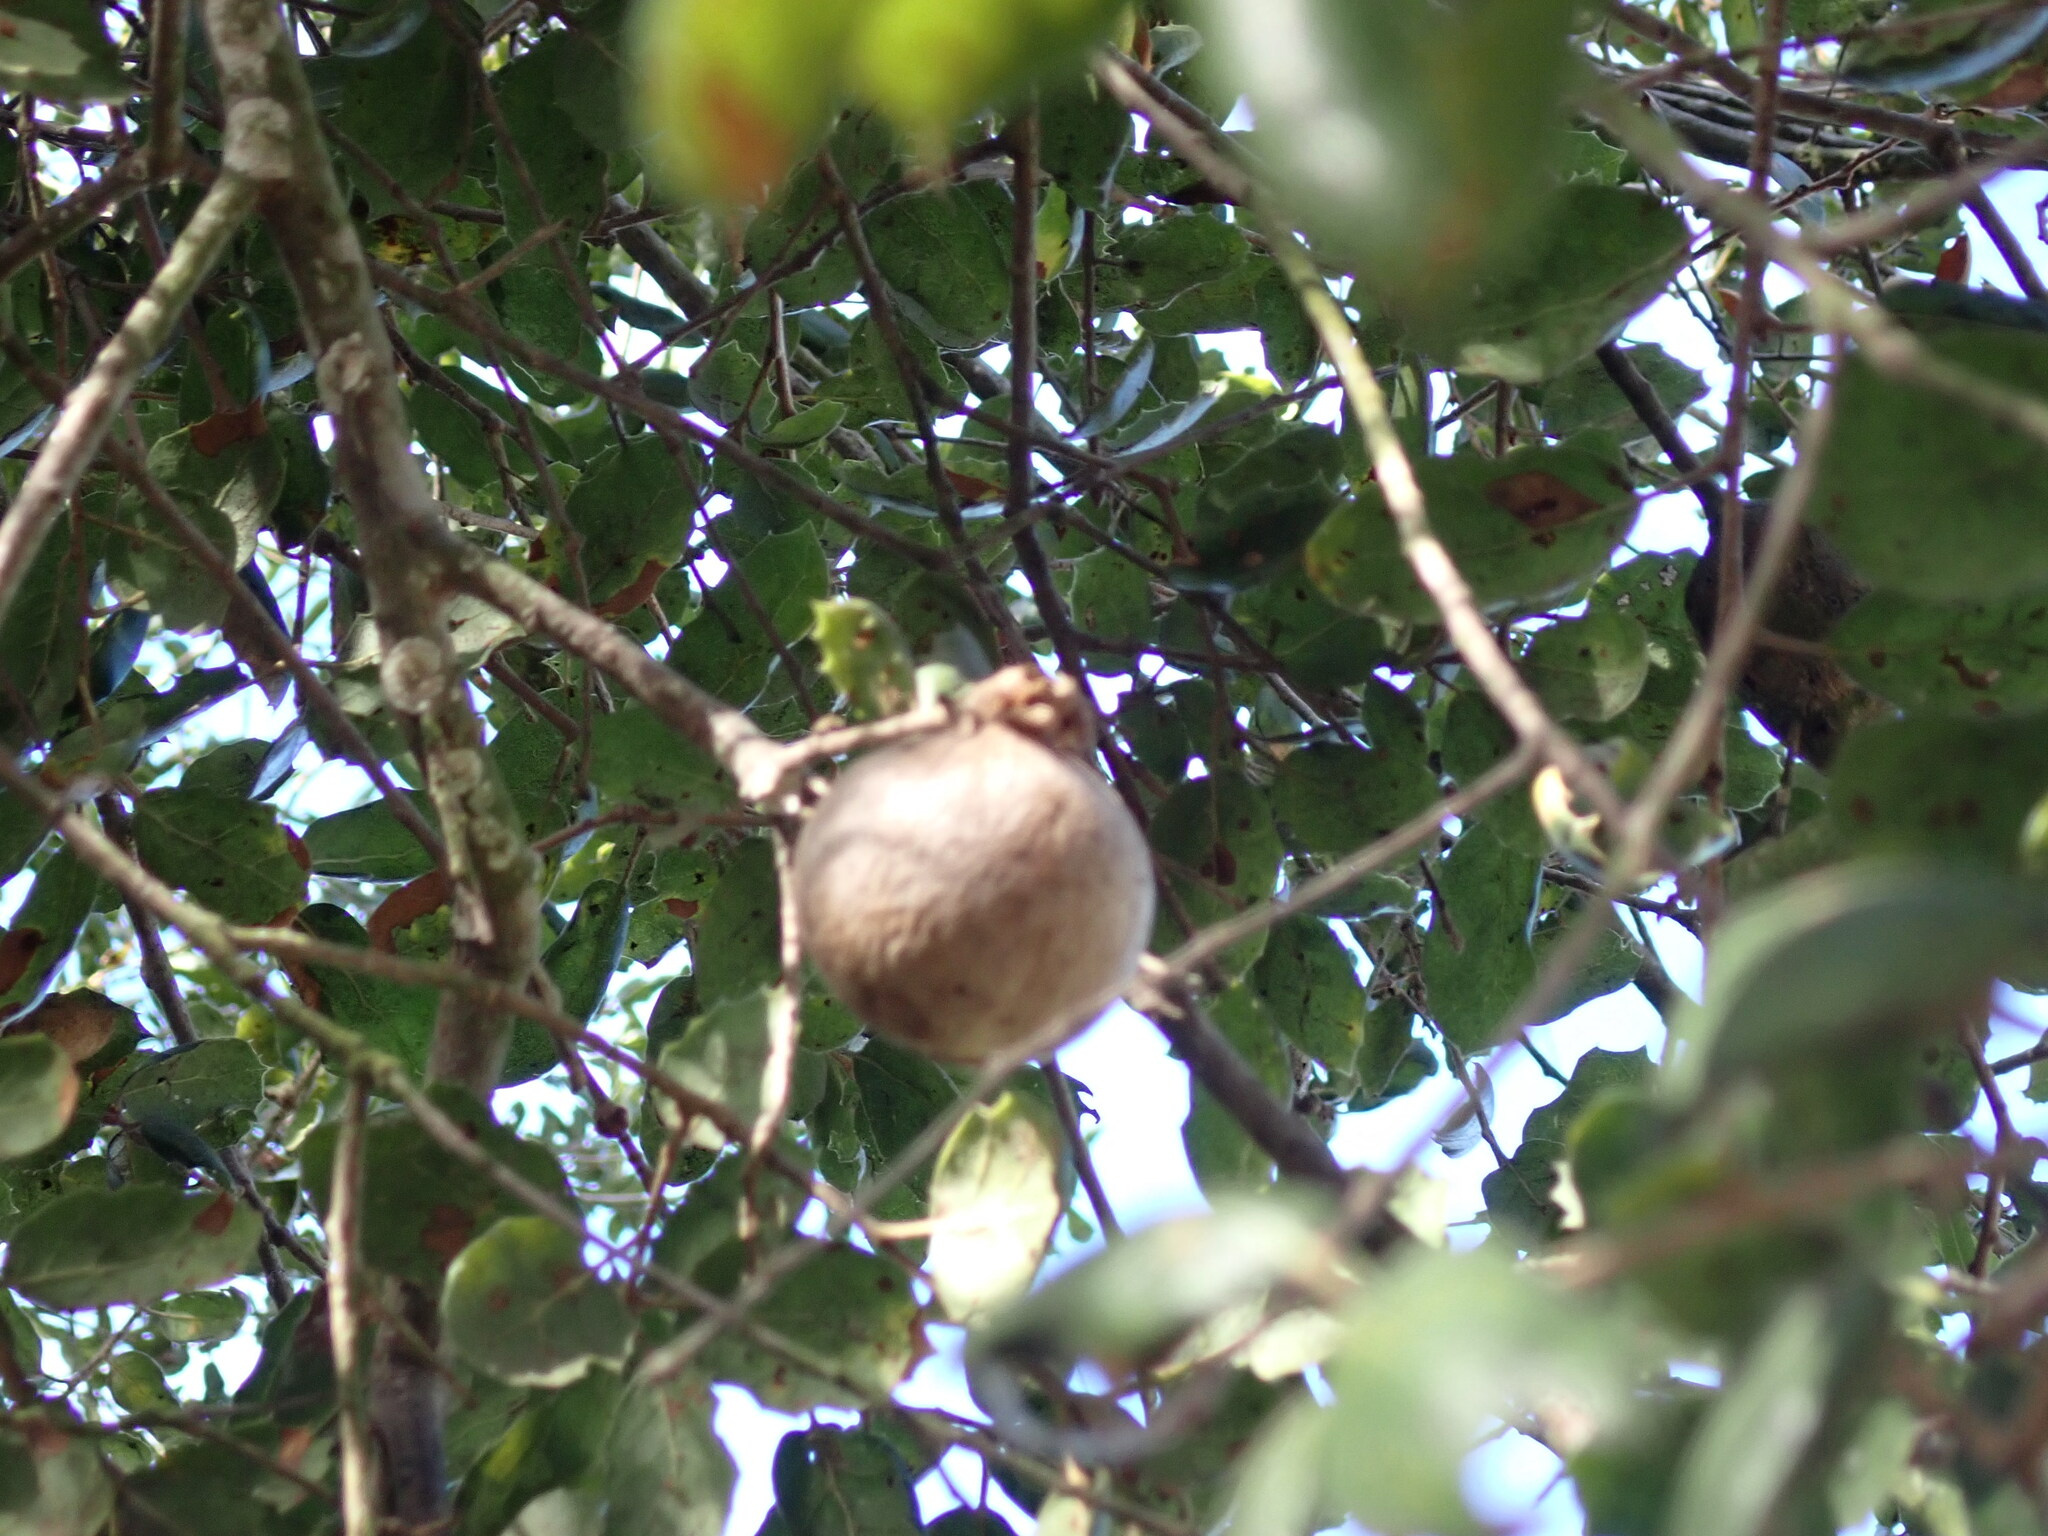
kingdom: Animalia
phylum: Arthropoda
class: Insecta
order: Hymenoptera
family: Cynipidae
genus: Amphibolips
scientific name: Amphibolips quercuspomiformis
